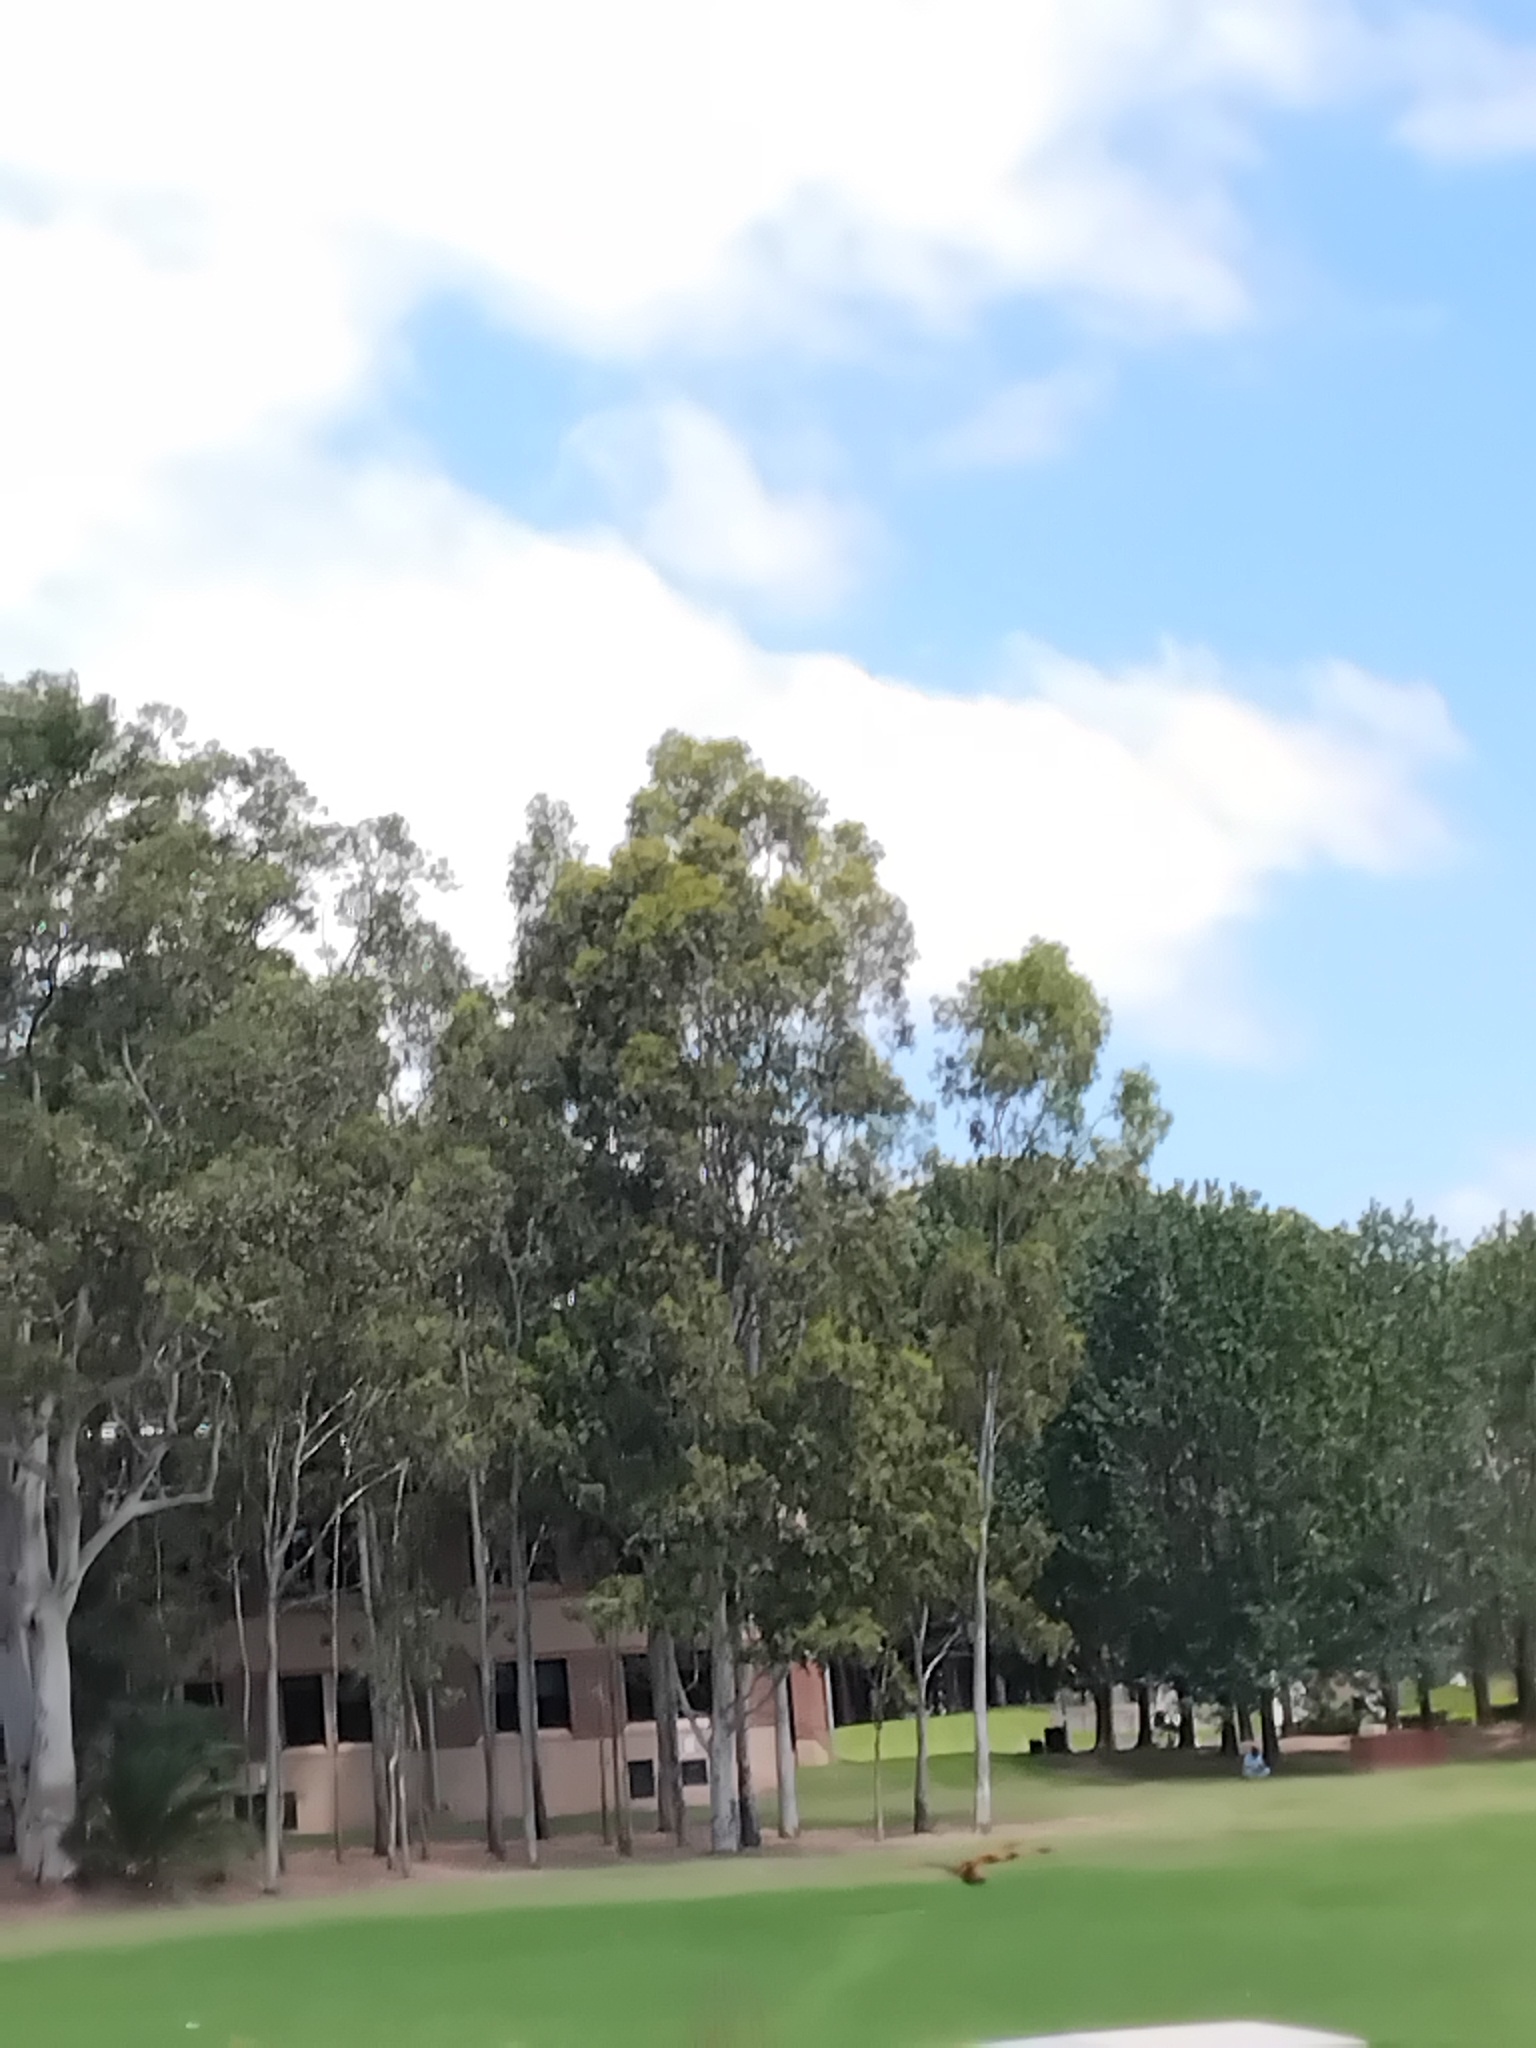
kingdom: Animalia
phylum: Arthropoda
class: Insecta
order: Odonata
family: Libellulidae
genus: Rhyothemis
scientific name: Rhyothemis graphiptera
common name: Graphic flutterer
